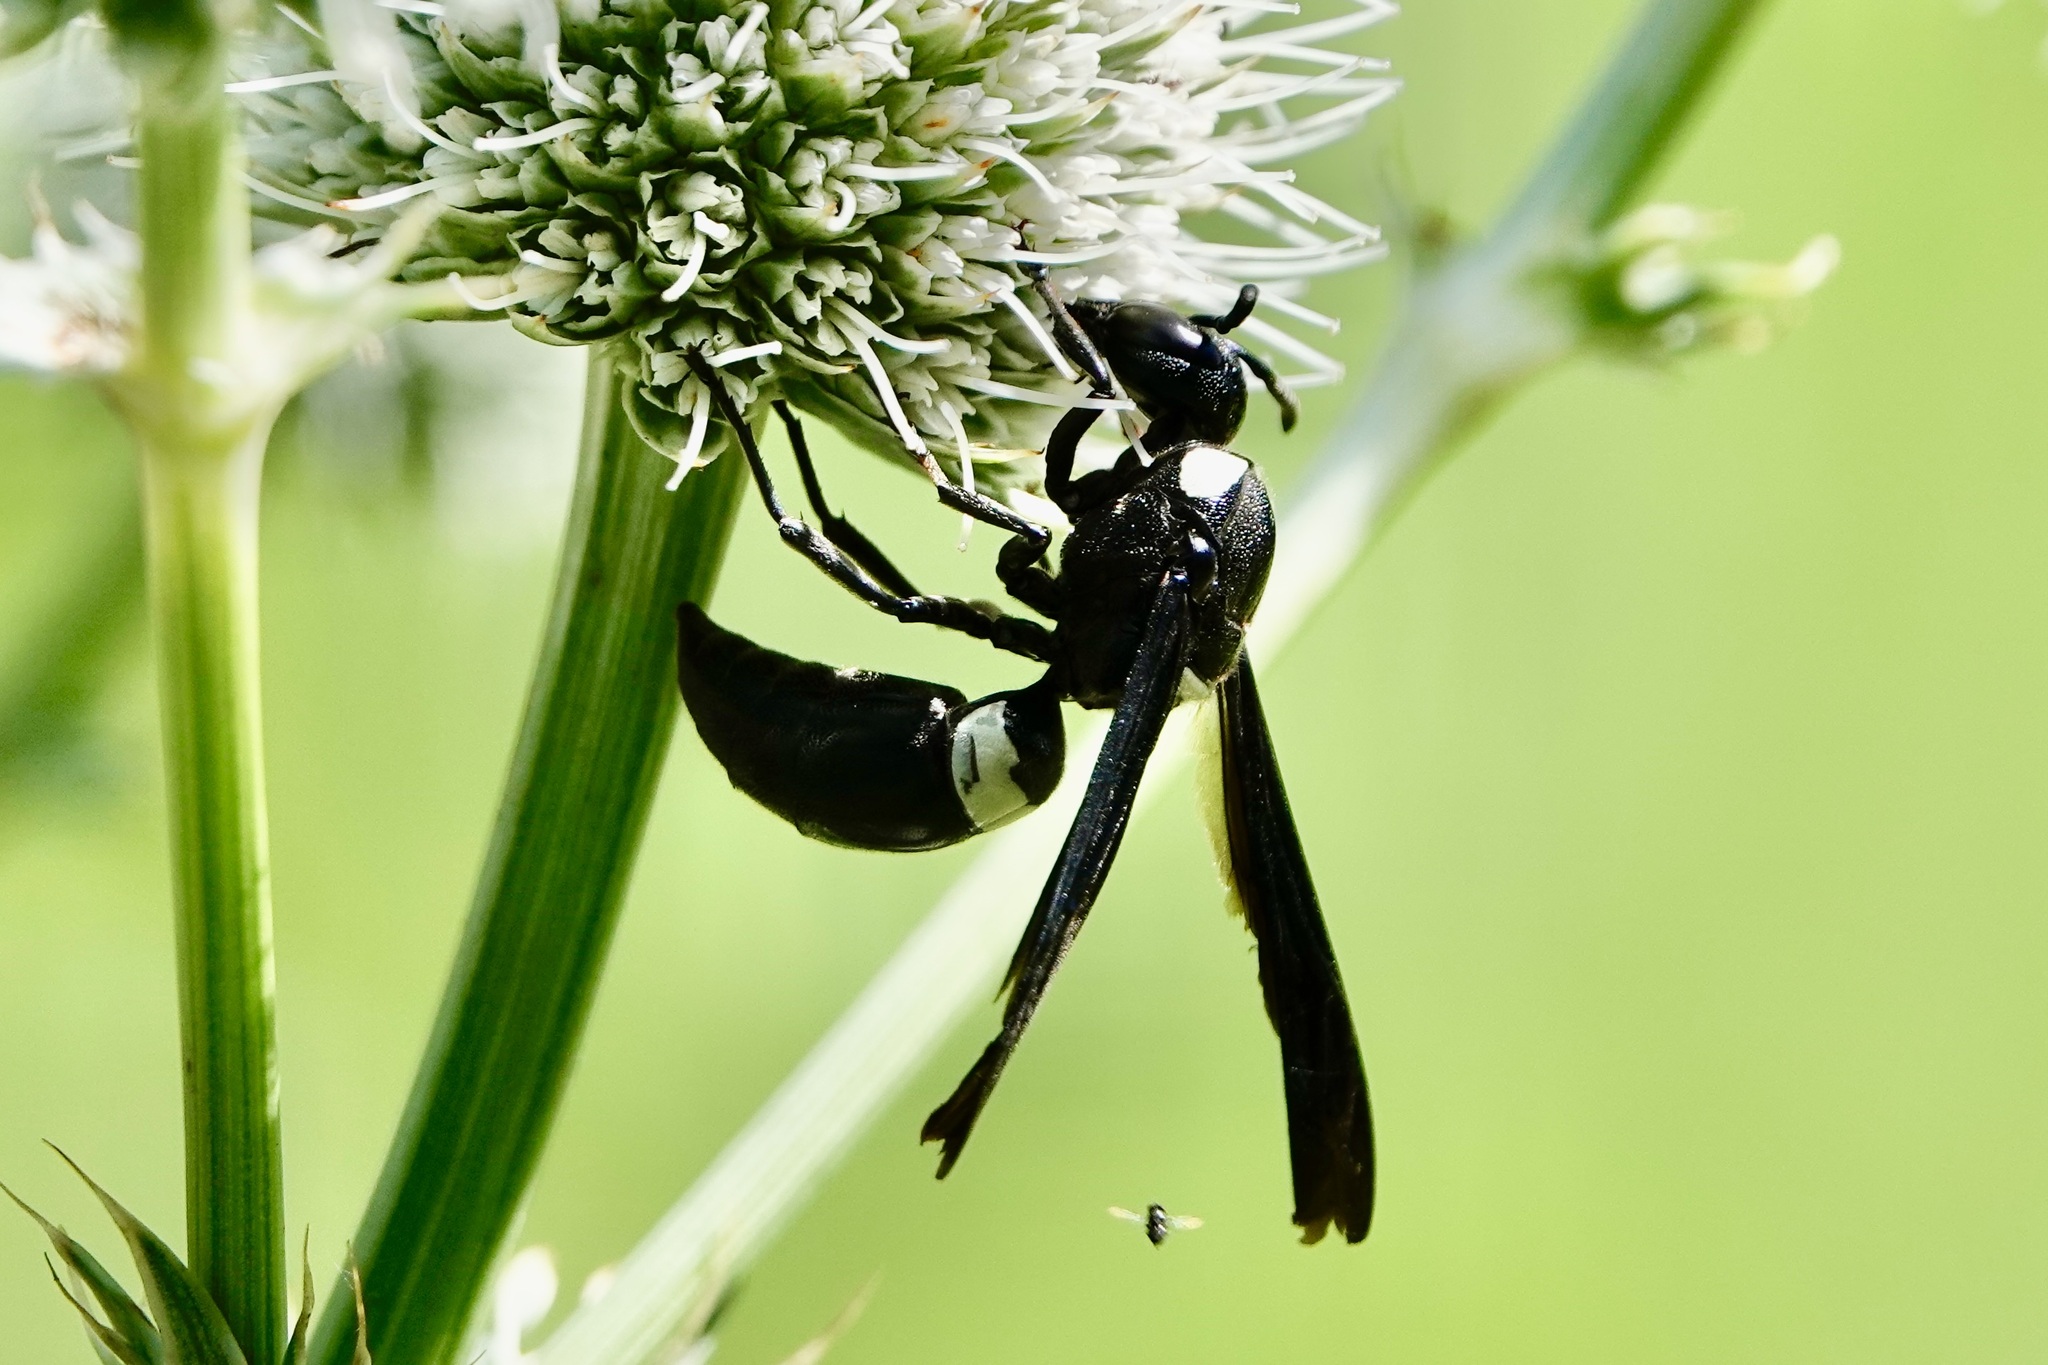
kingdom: Animalia
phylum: Arthropoda
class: Insecta
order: Hymenoptera
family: Eumenidae
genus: Monobia
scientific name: Monobia quadridens
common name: Four-toothed mason wasp
